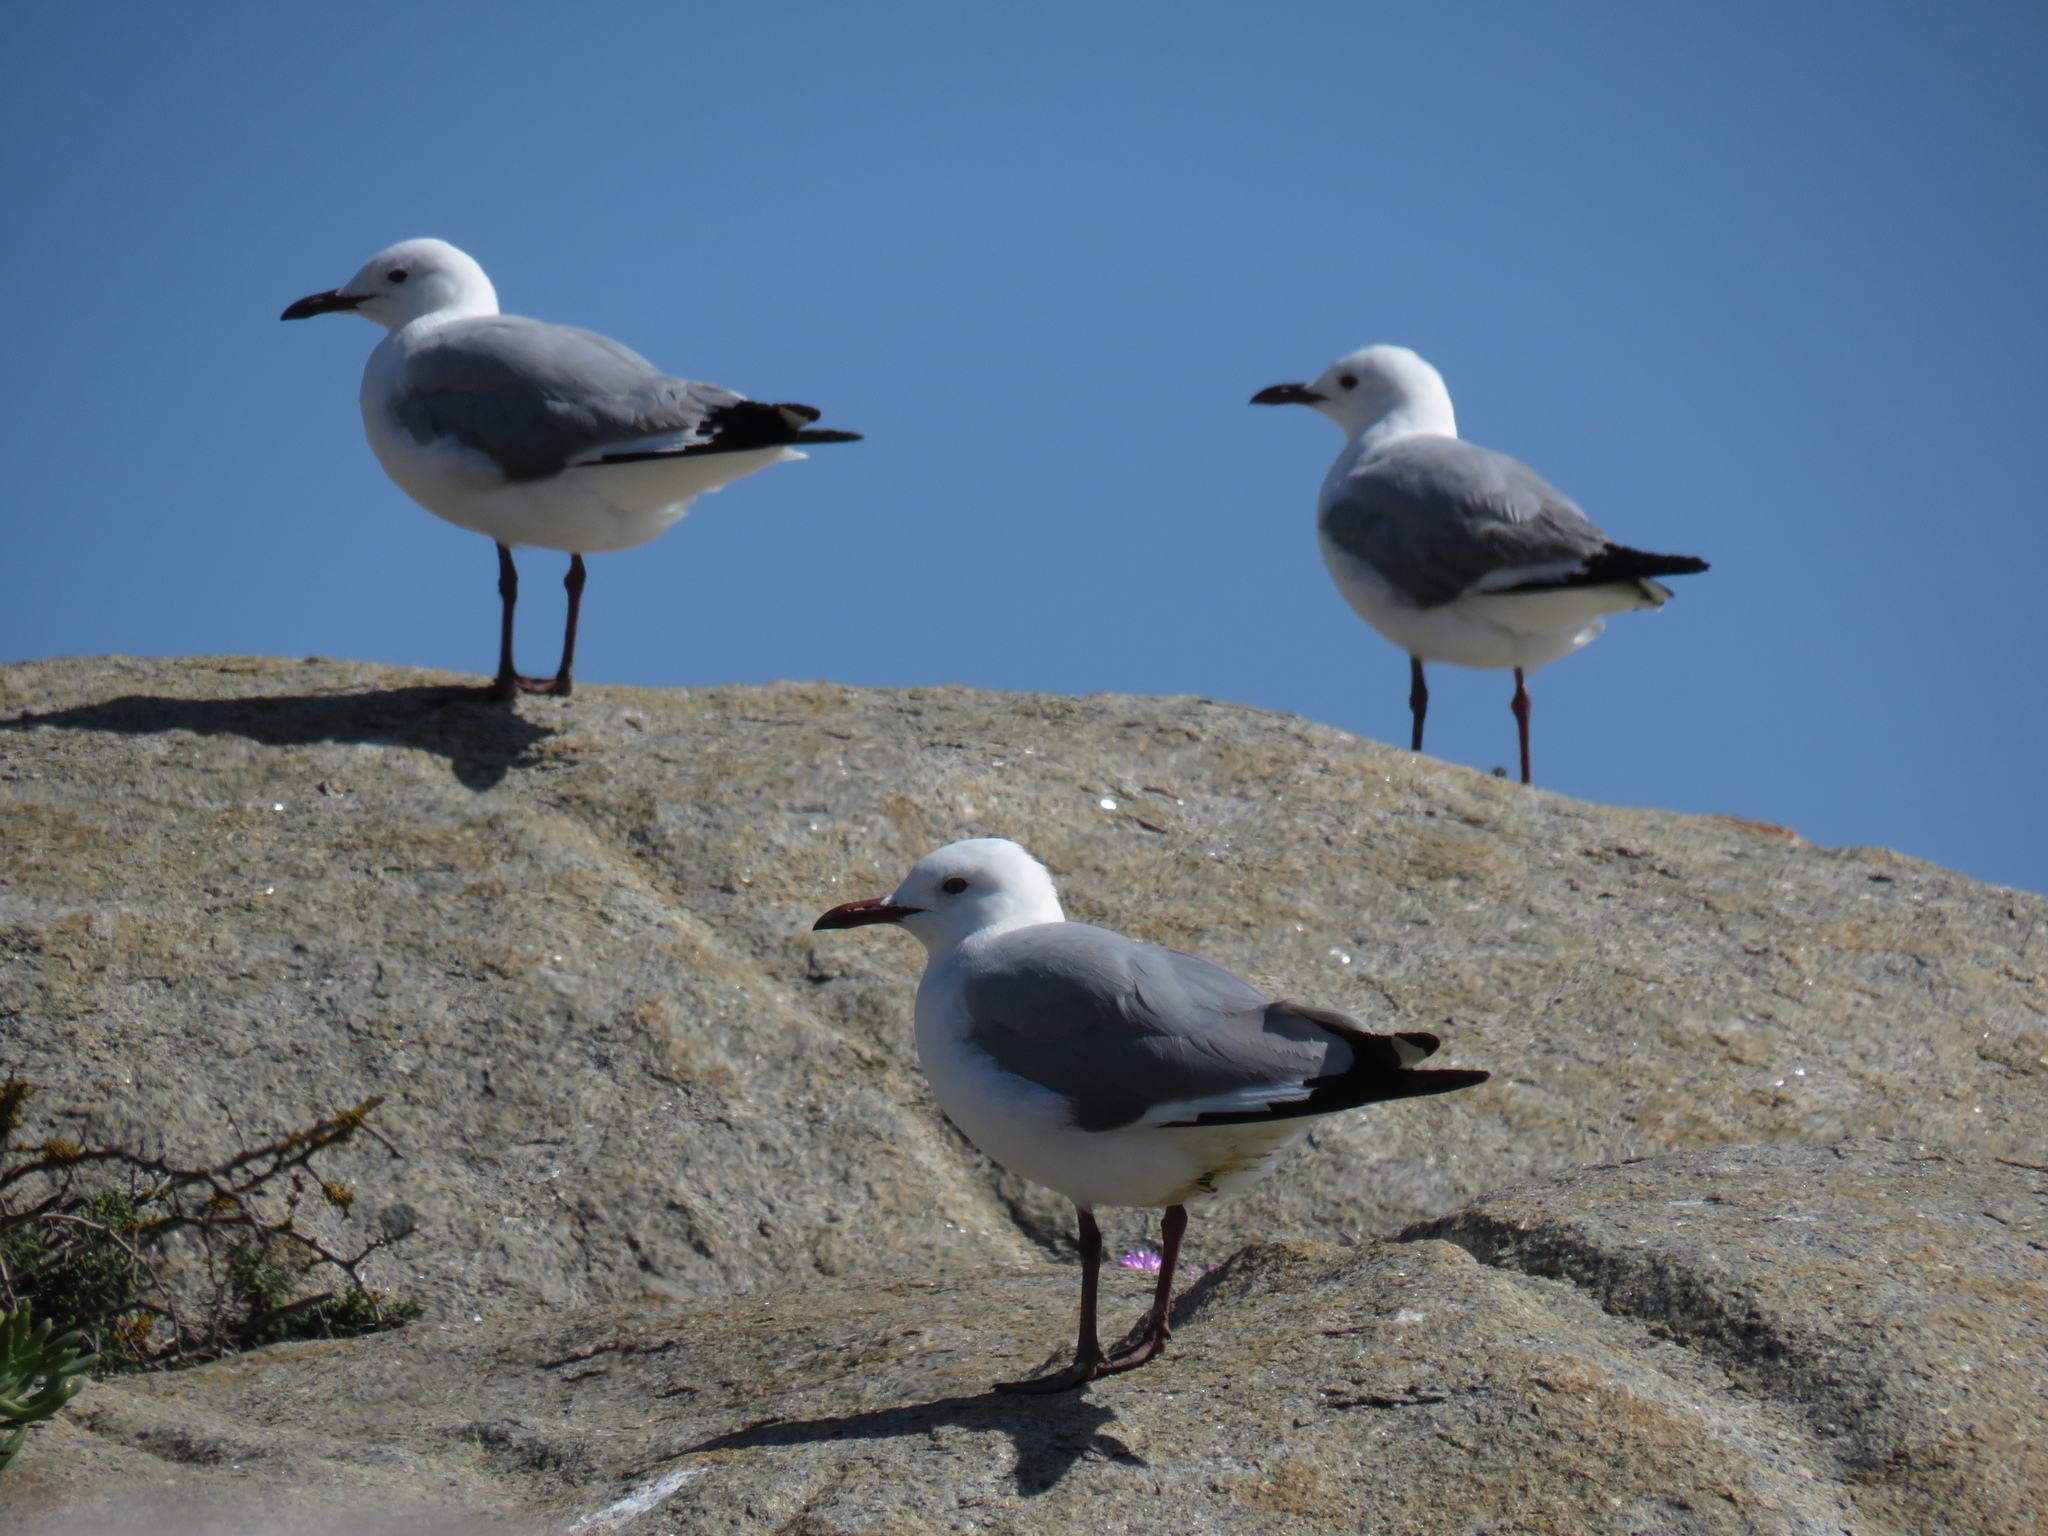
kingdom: Animalia
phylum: Chordata
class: Aves
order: Charadriiformes
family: Laridae
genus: Chroicocephalus
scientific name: Chroicocephalus hartlaubii
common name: Hartlaub's gull
